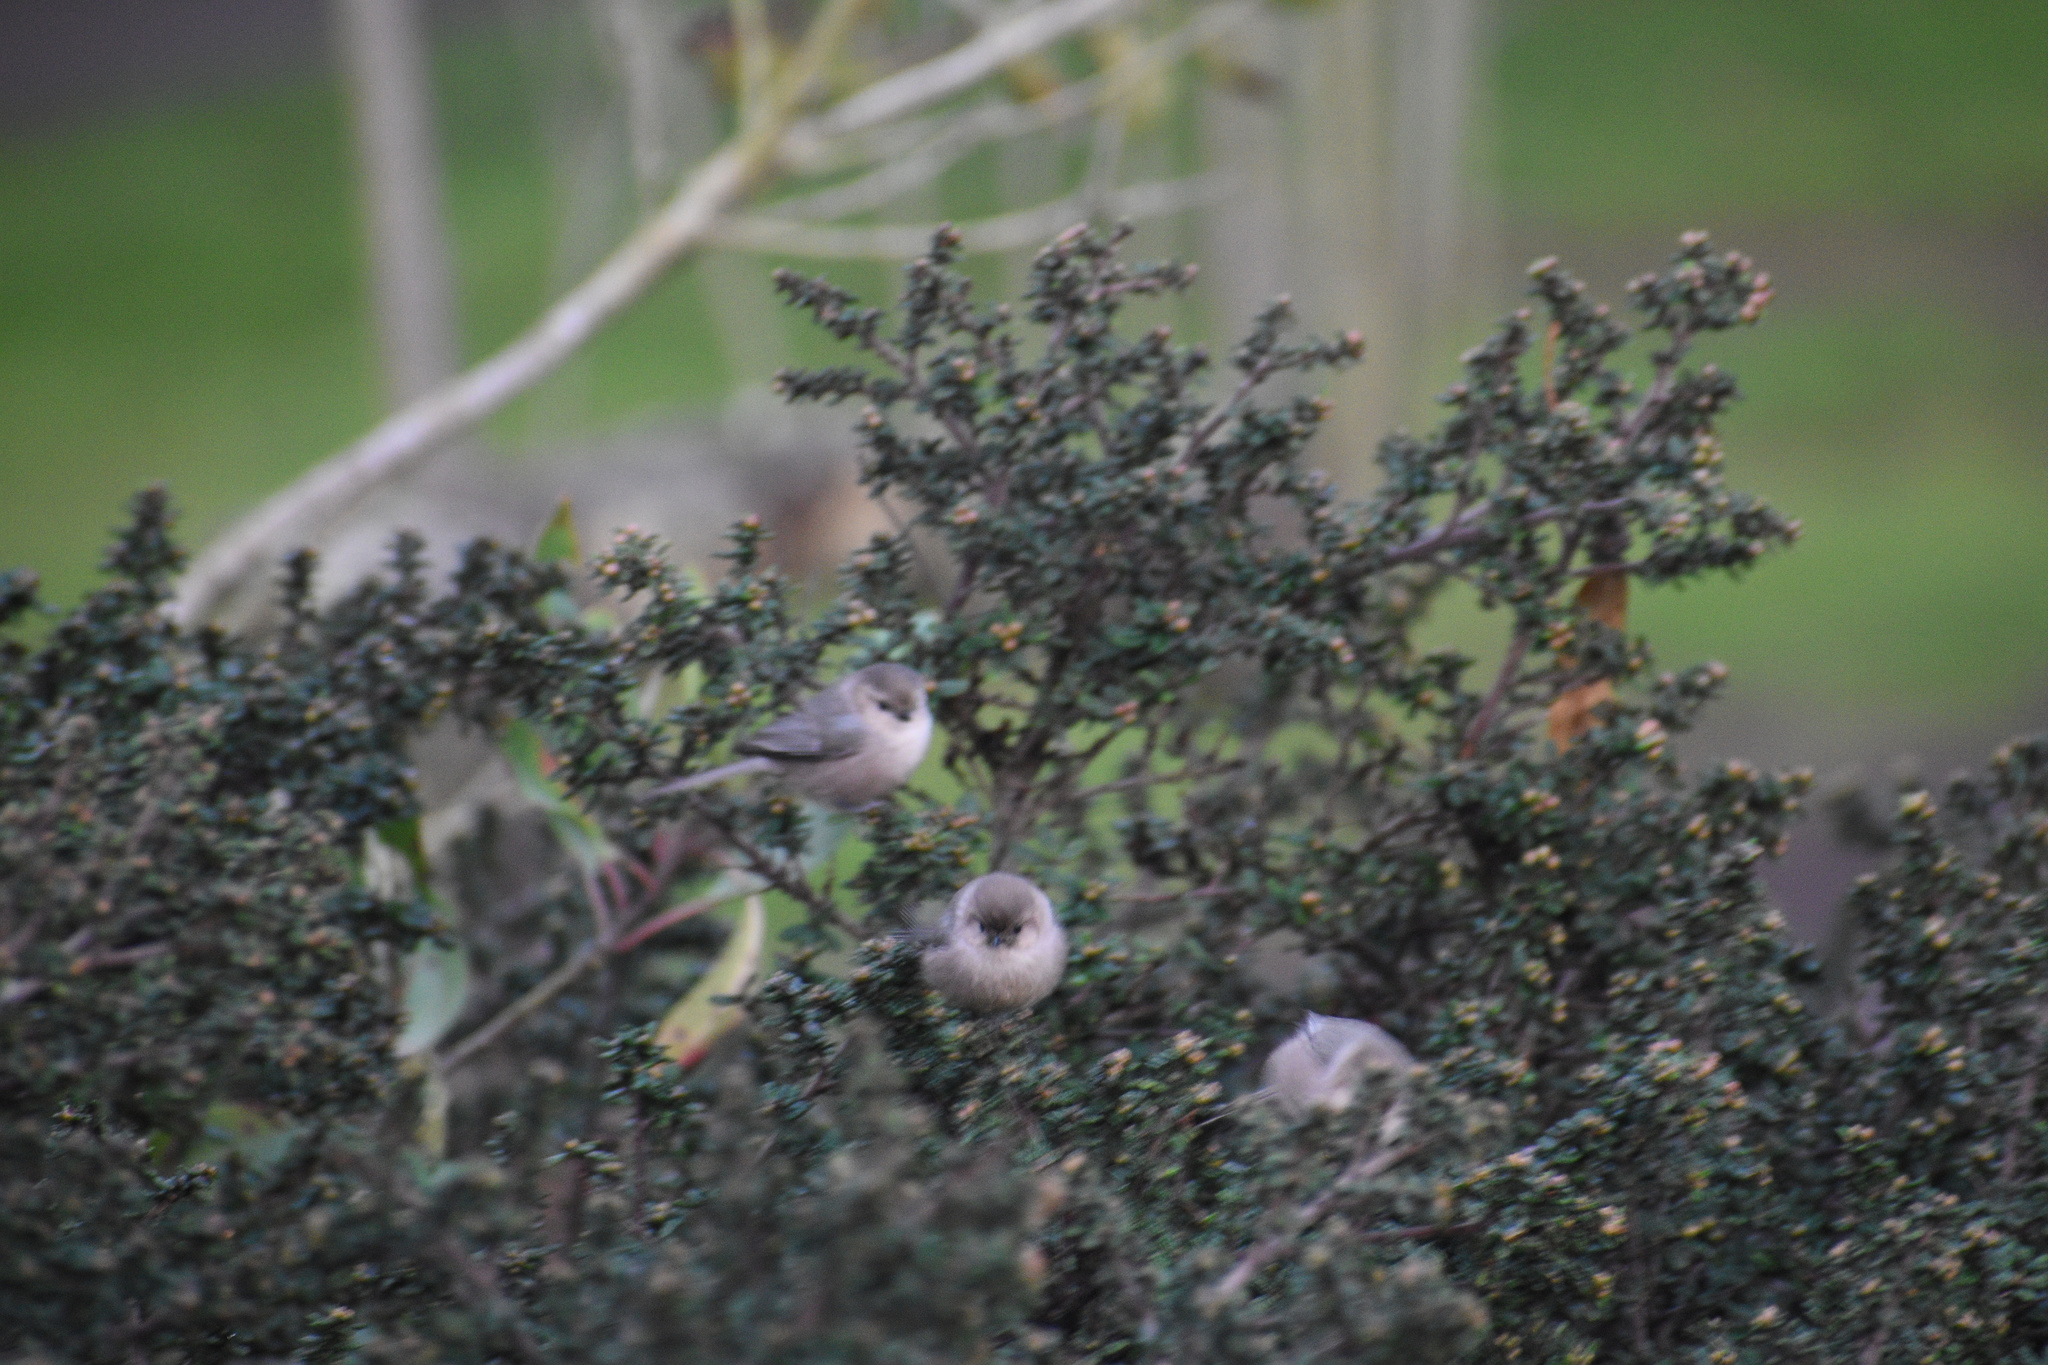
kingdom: Animalia
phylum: Chordata
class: Aves
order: Passeriformes
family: Aegithalidae
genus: Psaltriparus
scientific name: Psaltriparus minimus
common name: American bushtit
